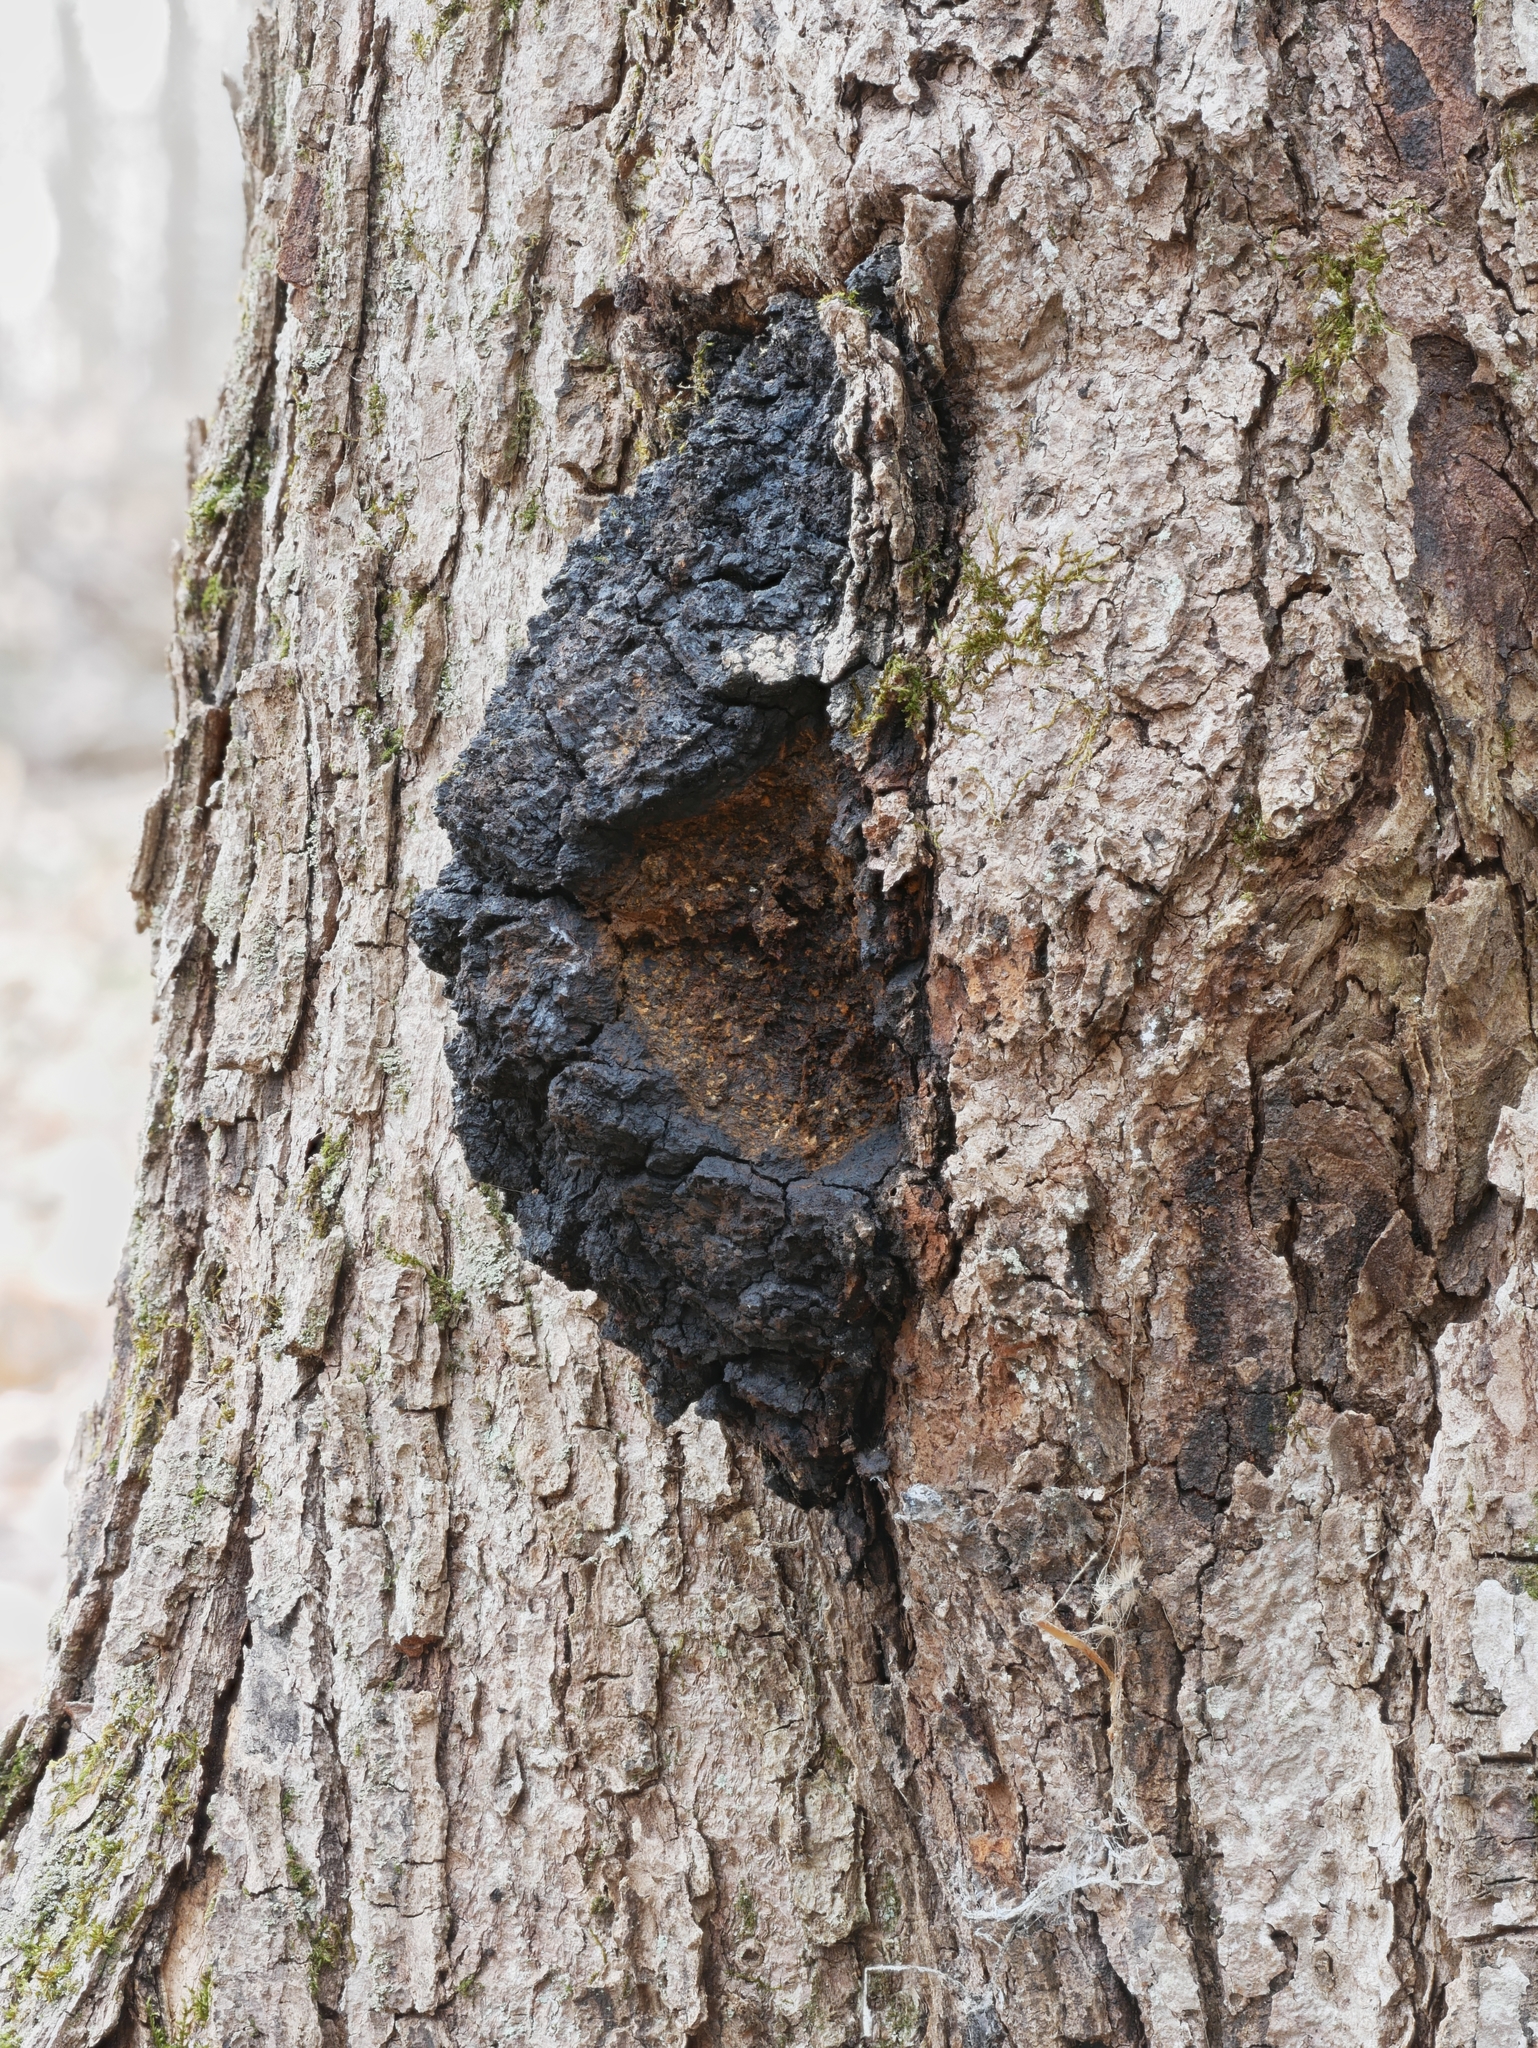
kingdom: Fungi
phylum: Basidiomycota
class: Agaricomycetes
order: Hymenochaetales
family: Hymenochaetaceae
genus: Inonotus
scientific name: Inonotus obliquus
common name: Chaga
